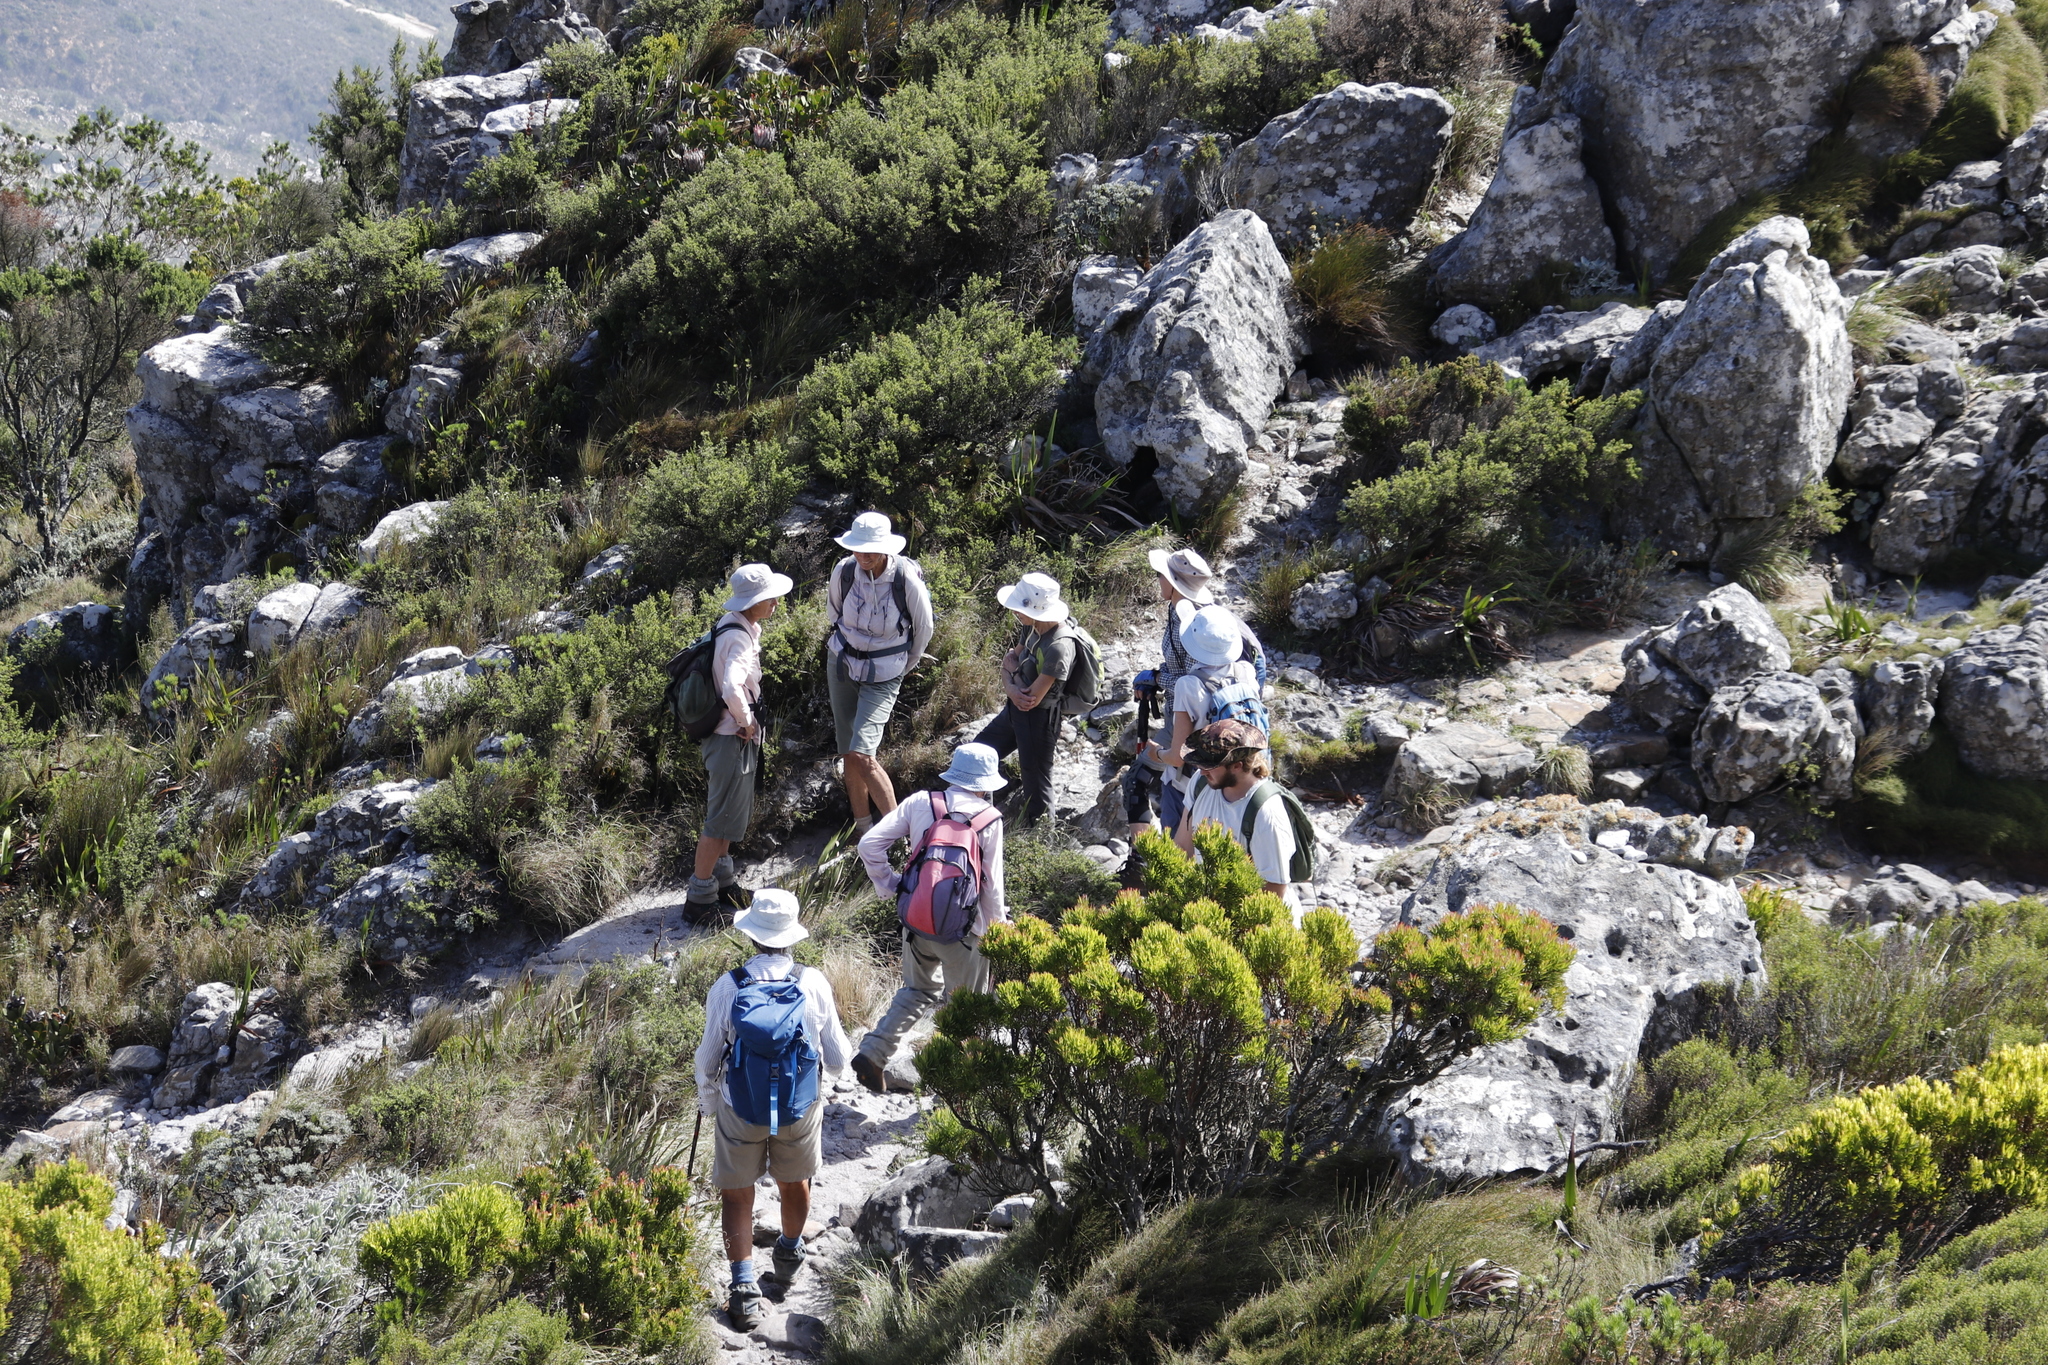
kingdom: Plantae
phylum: Tracheophyta
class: Magnoliopsida
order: Proteales
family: Proteaceae
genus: Leucadendron
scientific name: Leucadendron xanthoconus
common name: Sickle-leaf conebush
